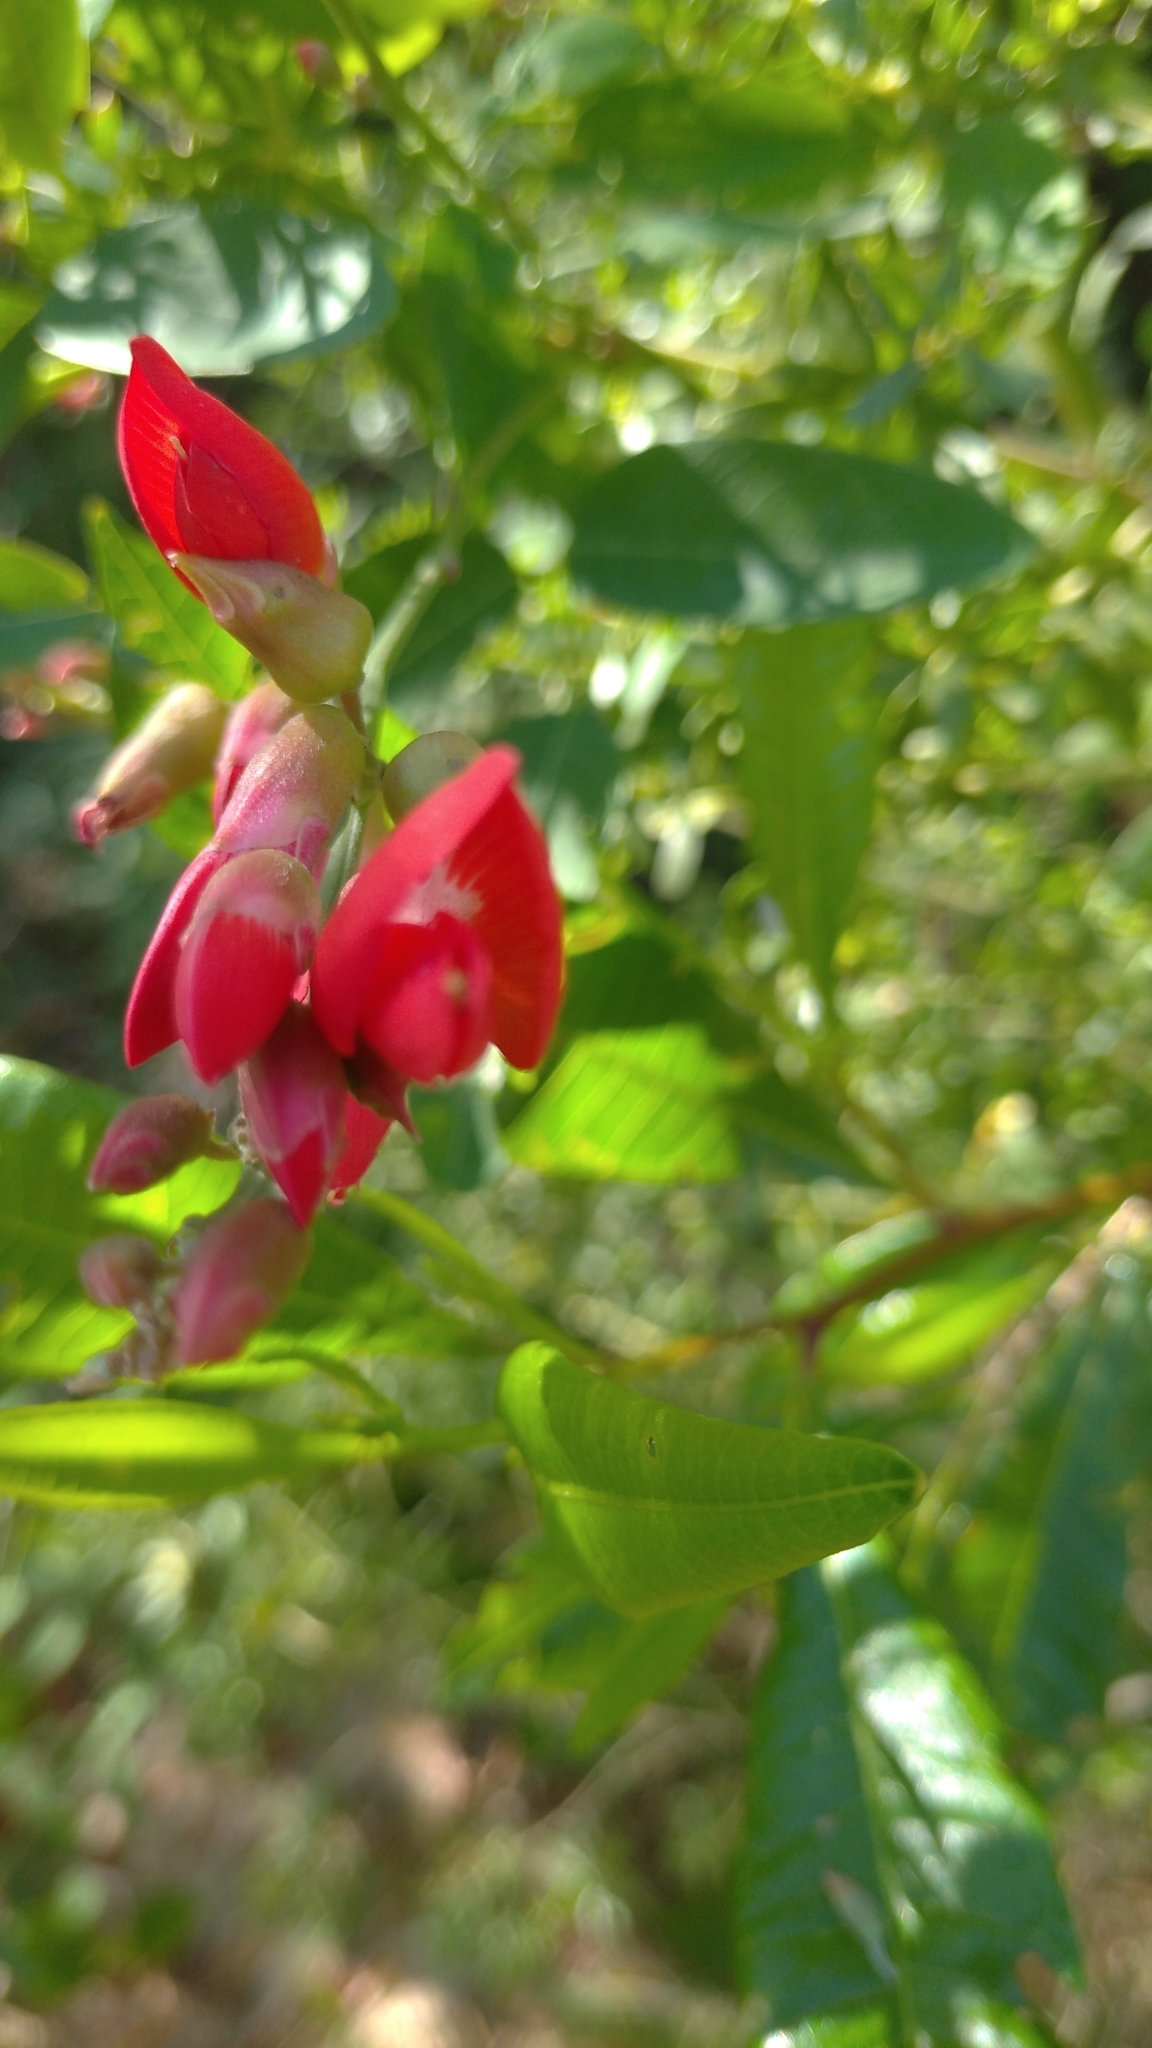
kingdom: Plantae
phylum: Tracheophyta
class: Magnoliopsida
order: Fabales
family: Fabaceae
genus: Camptosema
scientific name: Camptosema rubicundum
